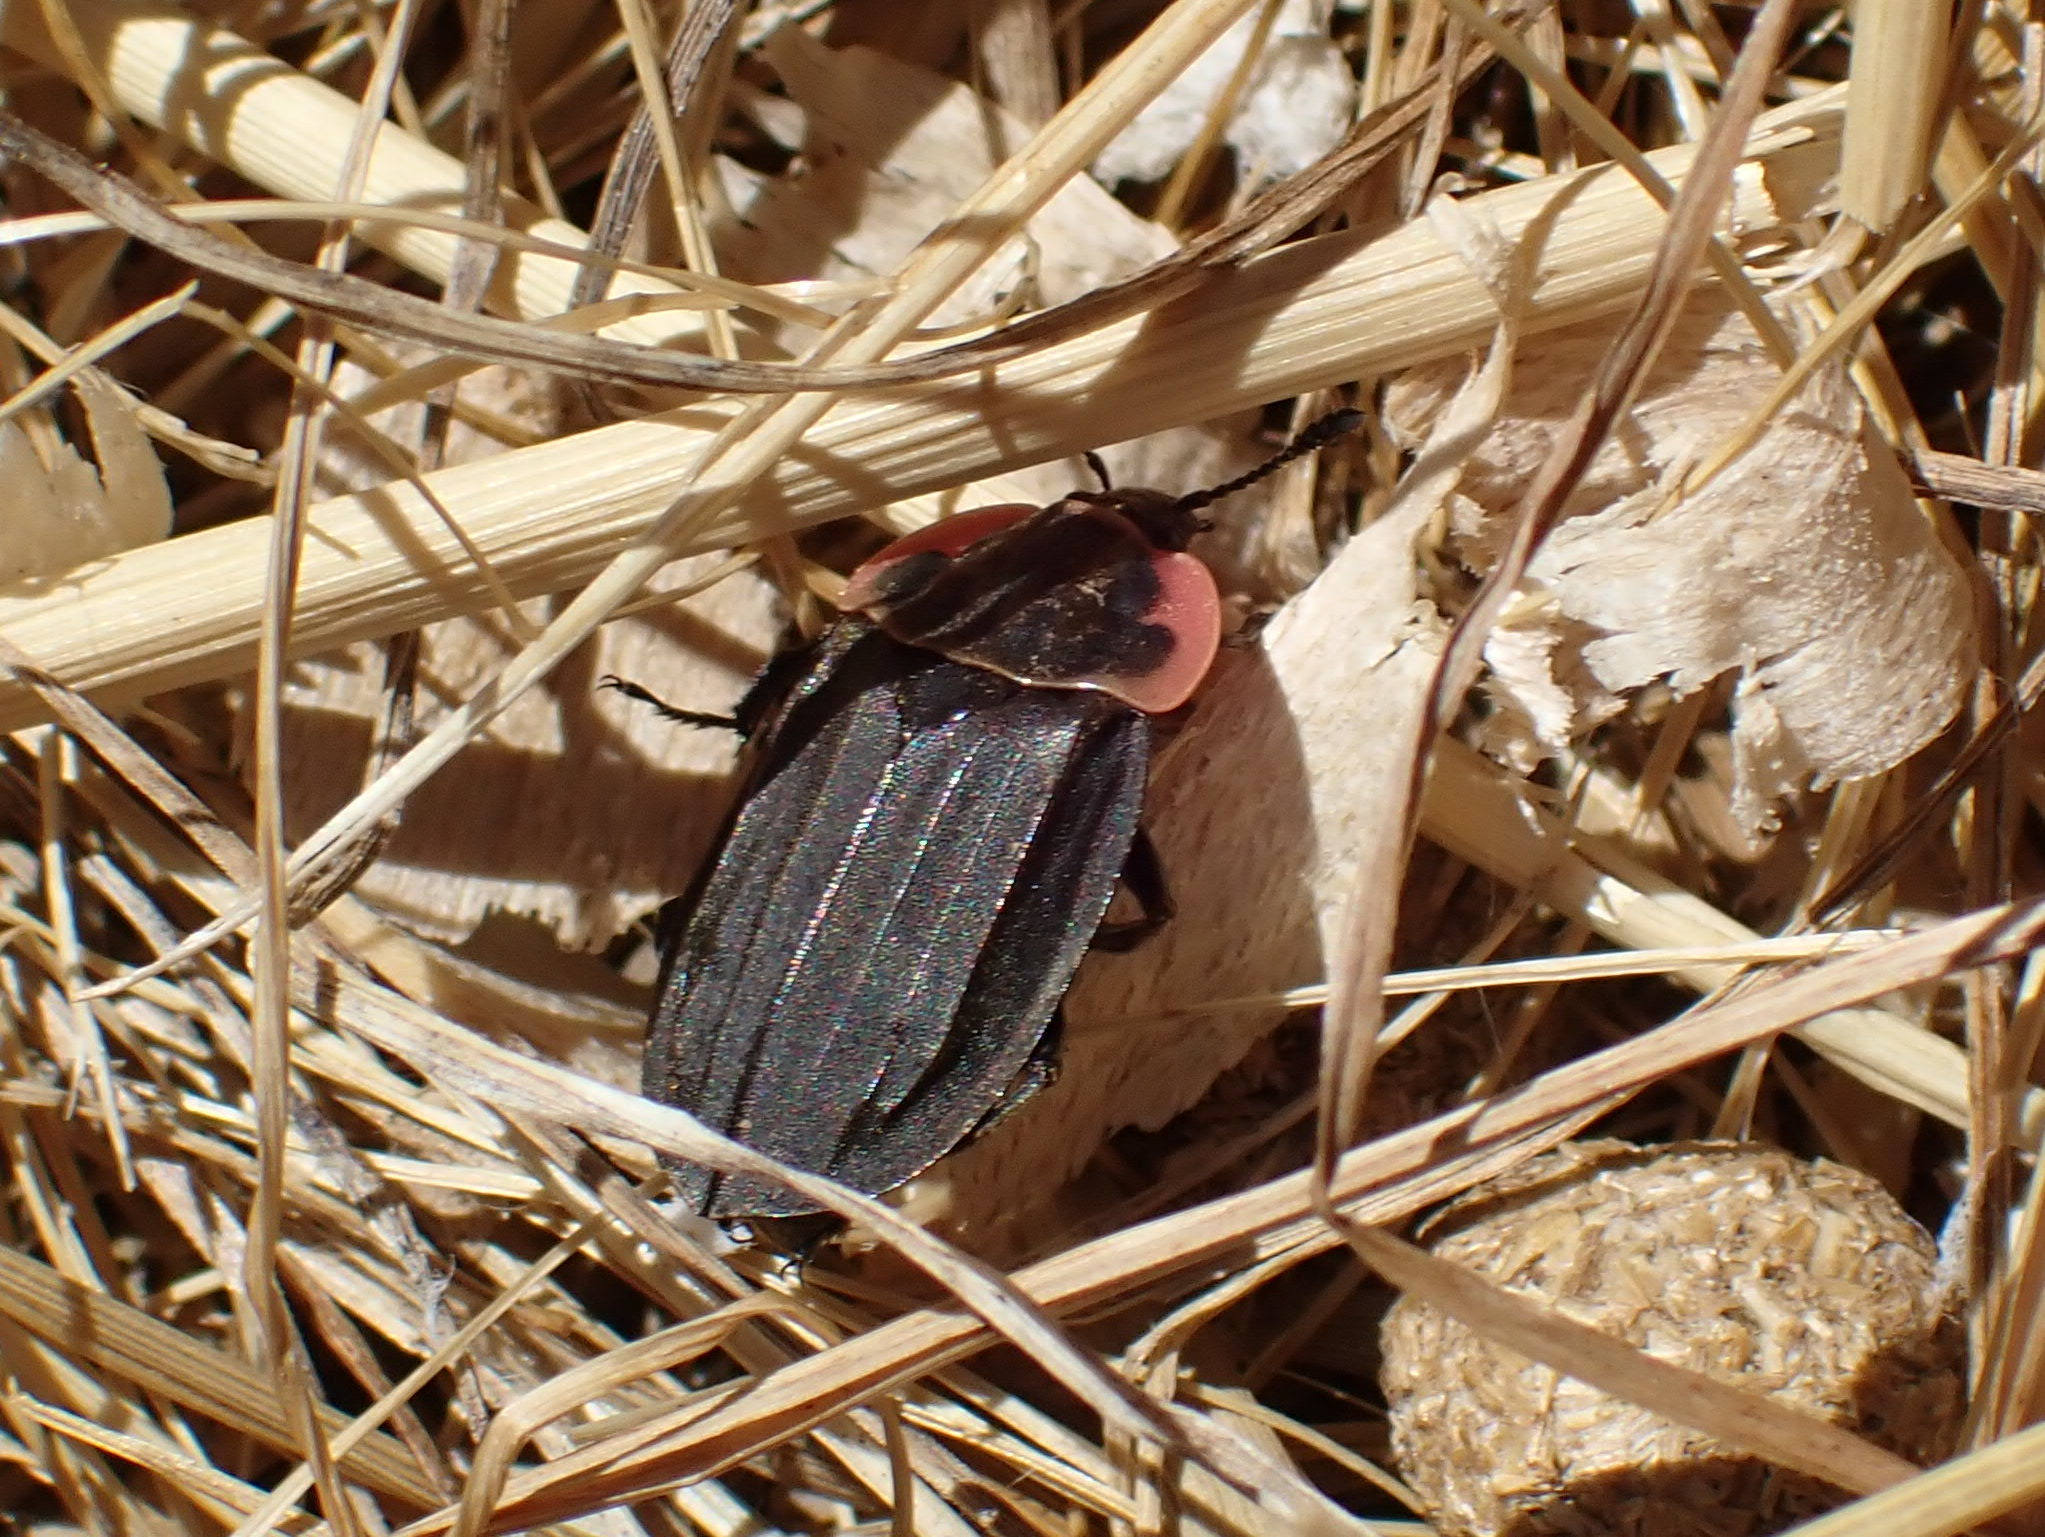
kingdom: Animalia
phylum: Arthropoda
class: Insecta
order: Coleoptera
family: Staphylinidae
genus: Oiceoptoma
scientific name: Oiceoptoma noveboracense
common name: Margined carrion beetle
